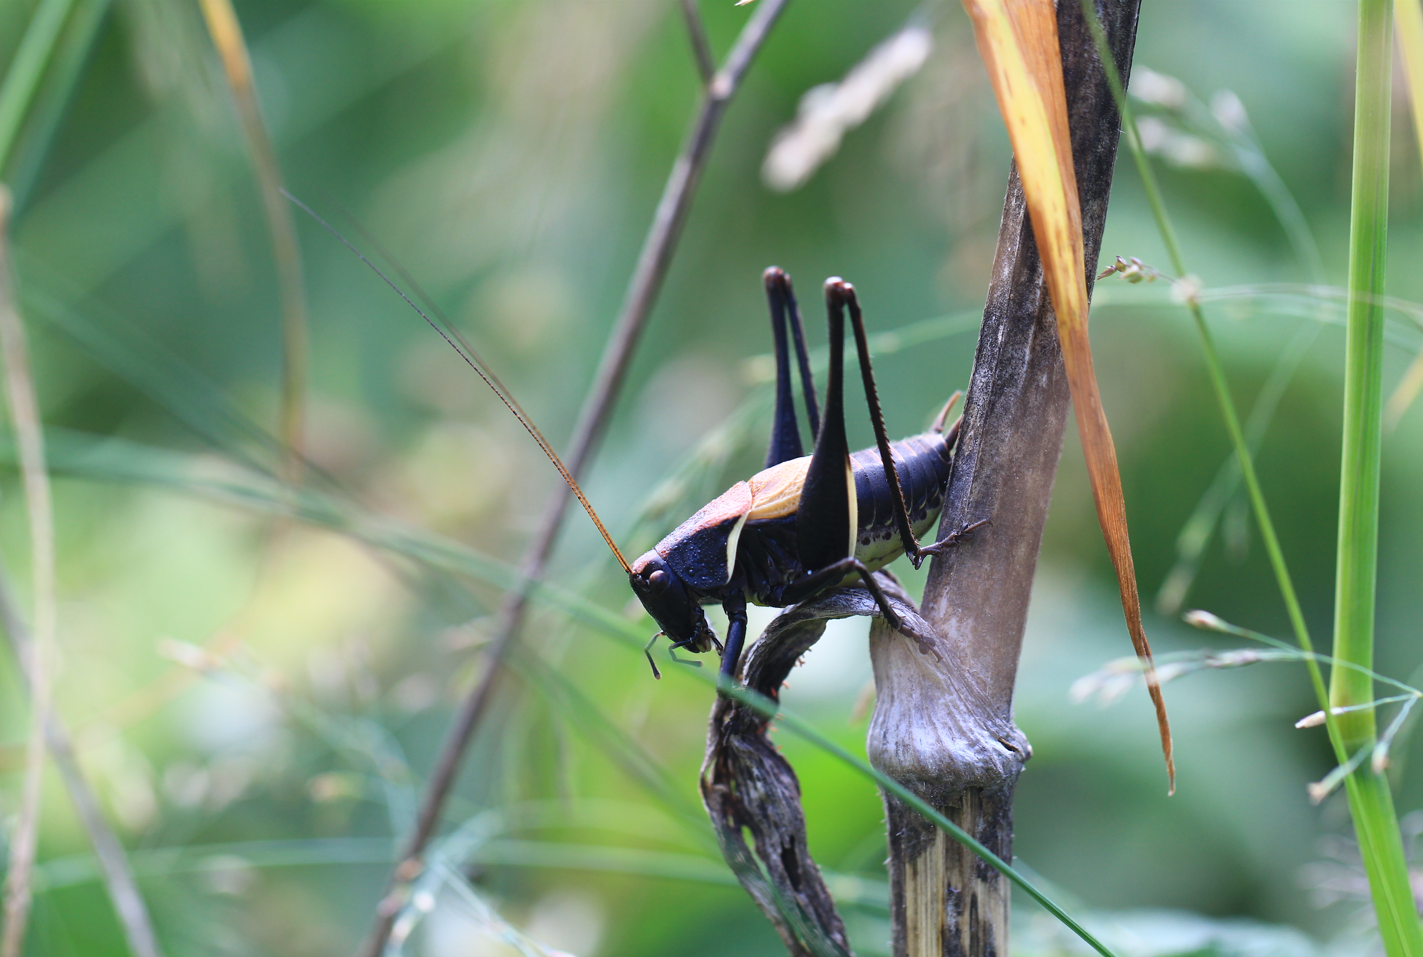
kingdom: Animalia
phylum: Arthropoda
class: Insecta
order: Orthoptera
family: Tettigoniidae
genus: Pholidoptera
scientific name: Pholidoptera aptera
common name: Alpine dark bush-cricket
